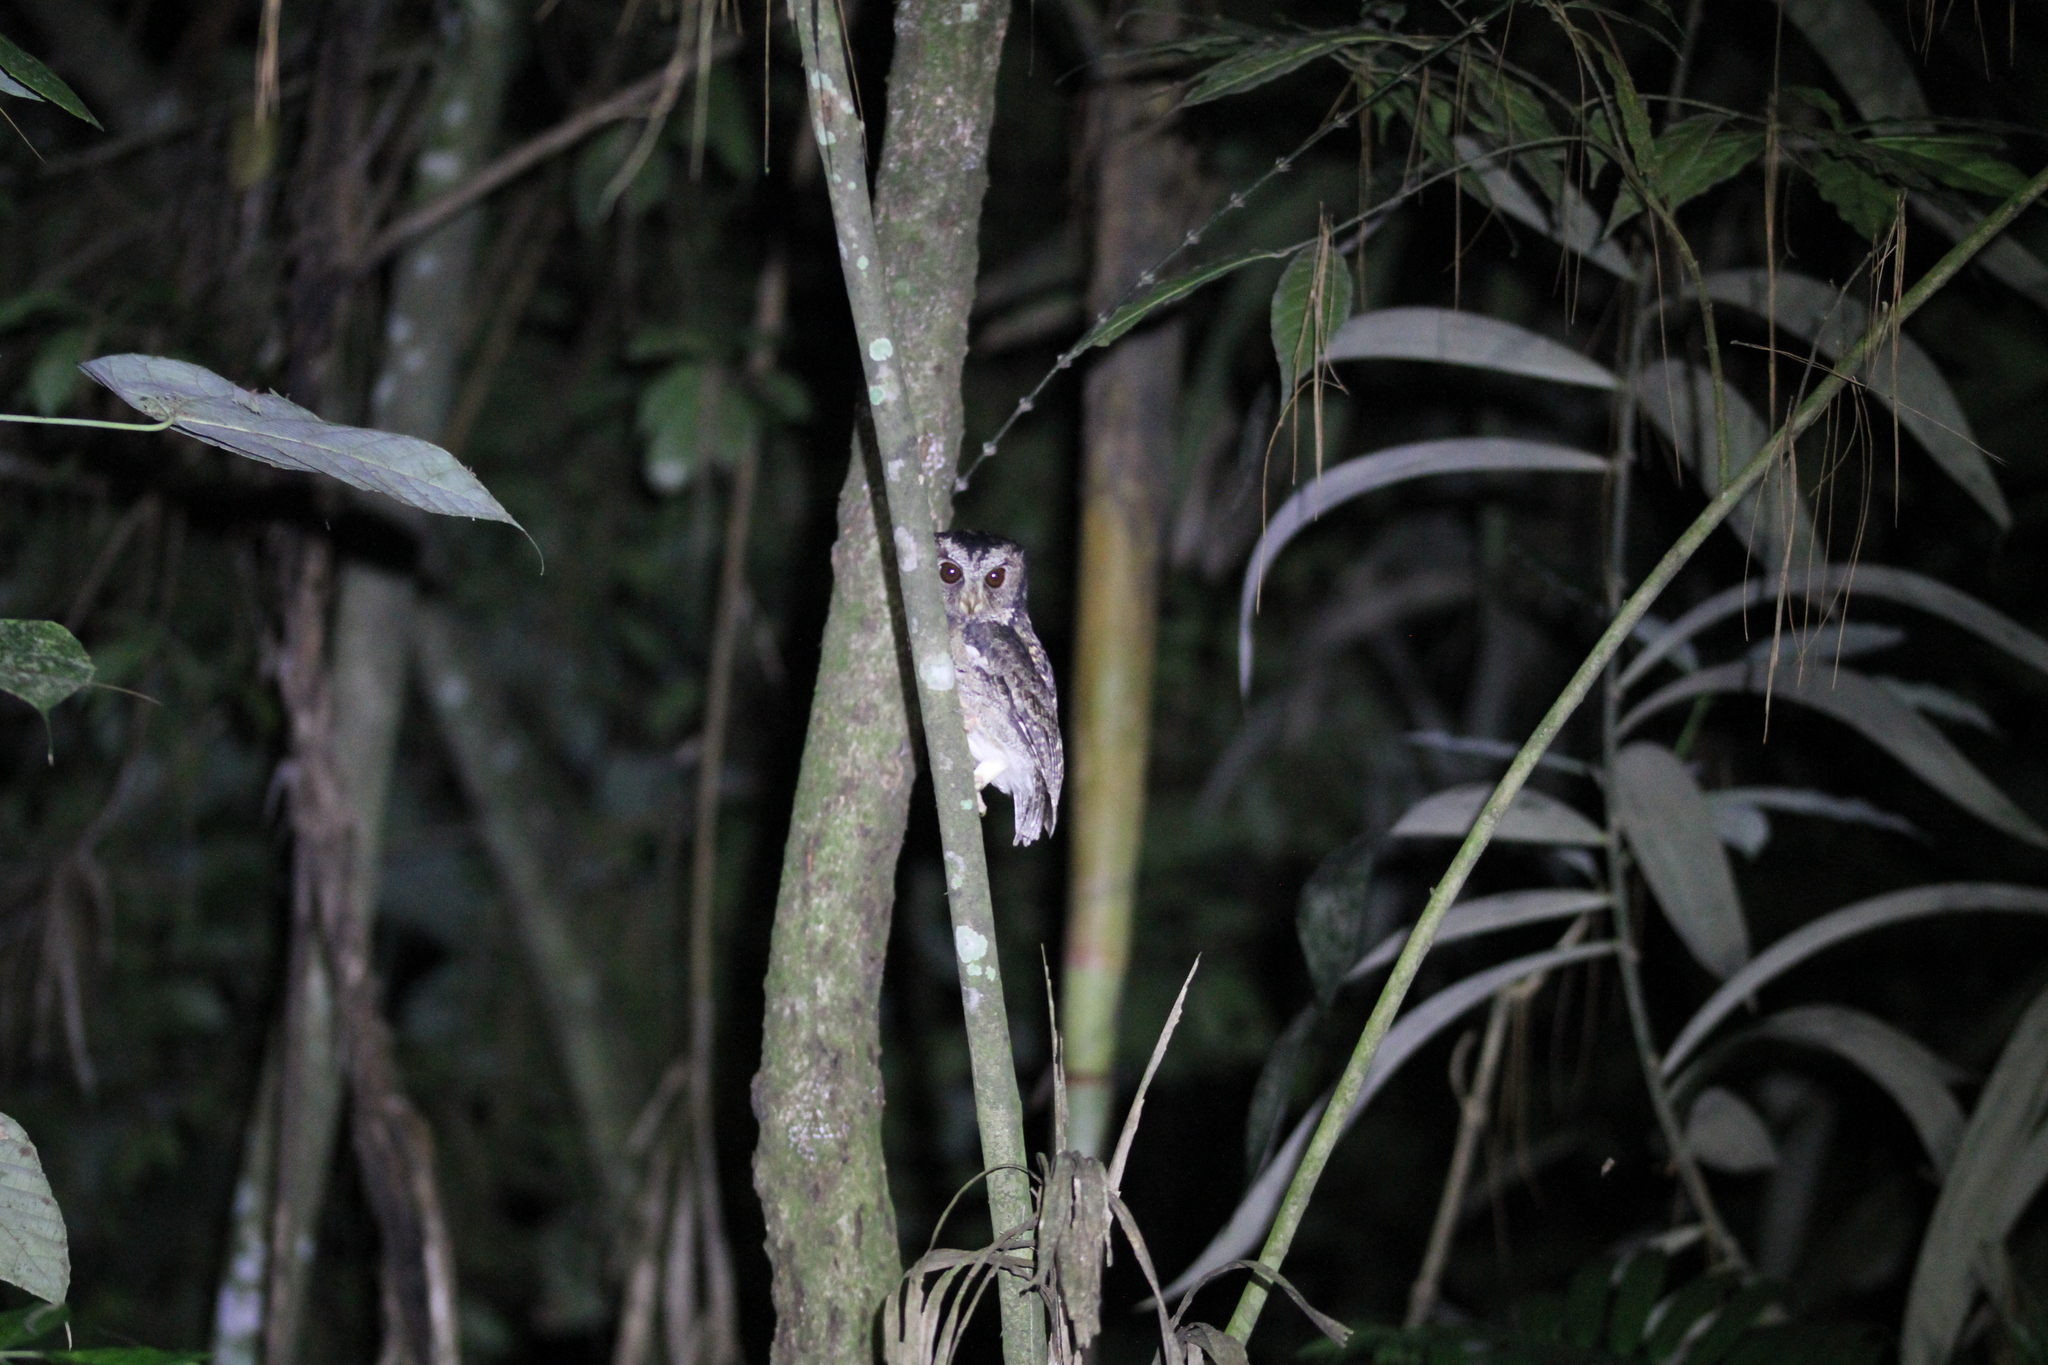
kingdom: Animalia
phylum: Chordata
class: Aves
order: Strigiformes
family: Strigidae
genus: Otus
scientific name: Otus lempiji
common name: Sunda scops-owl
